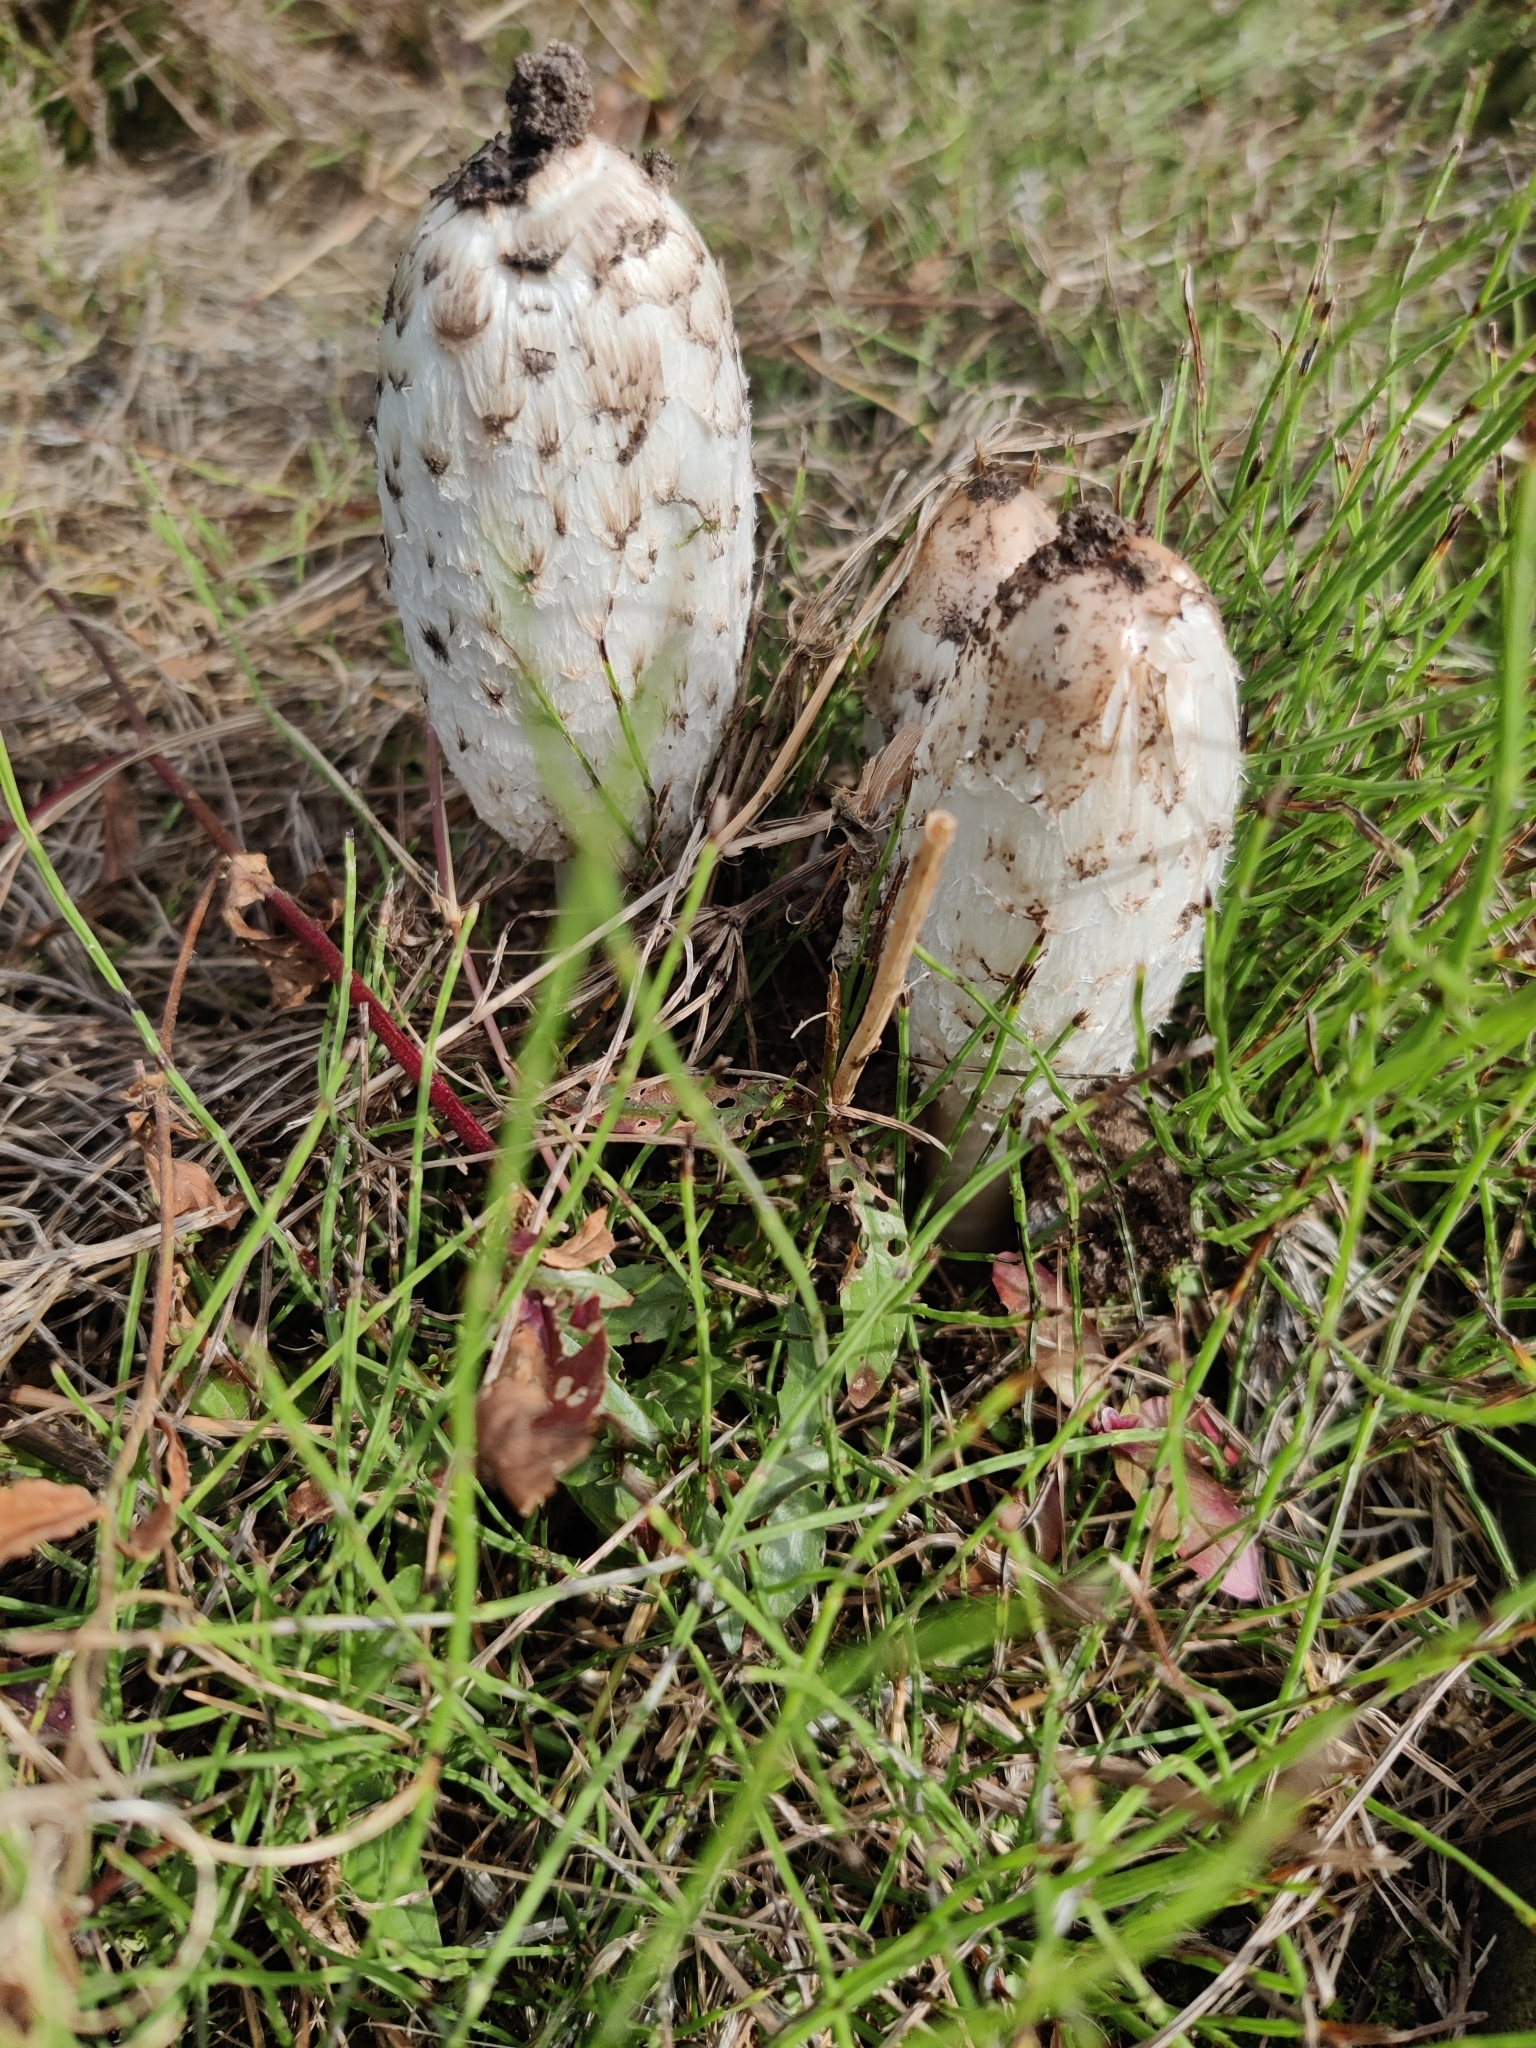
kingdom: Fungi
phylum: Basidiomycota
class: Agaricomycetes
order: Agaricales
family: Agaricaceae
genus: Coprinus
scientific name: Coprinus comatus
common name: Lawyer's wig
